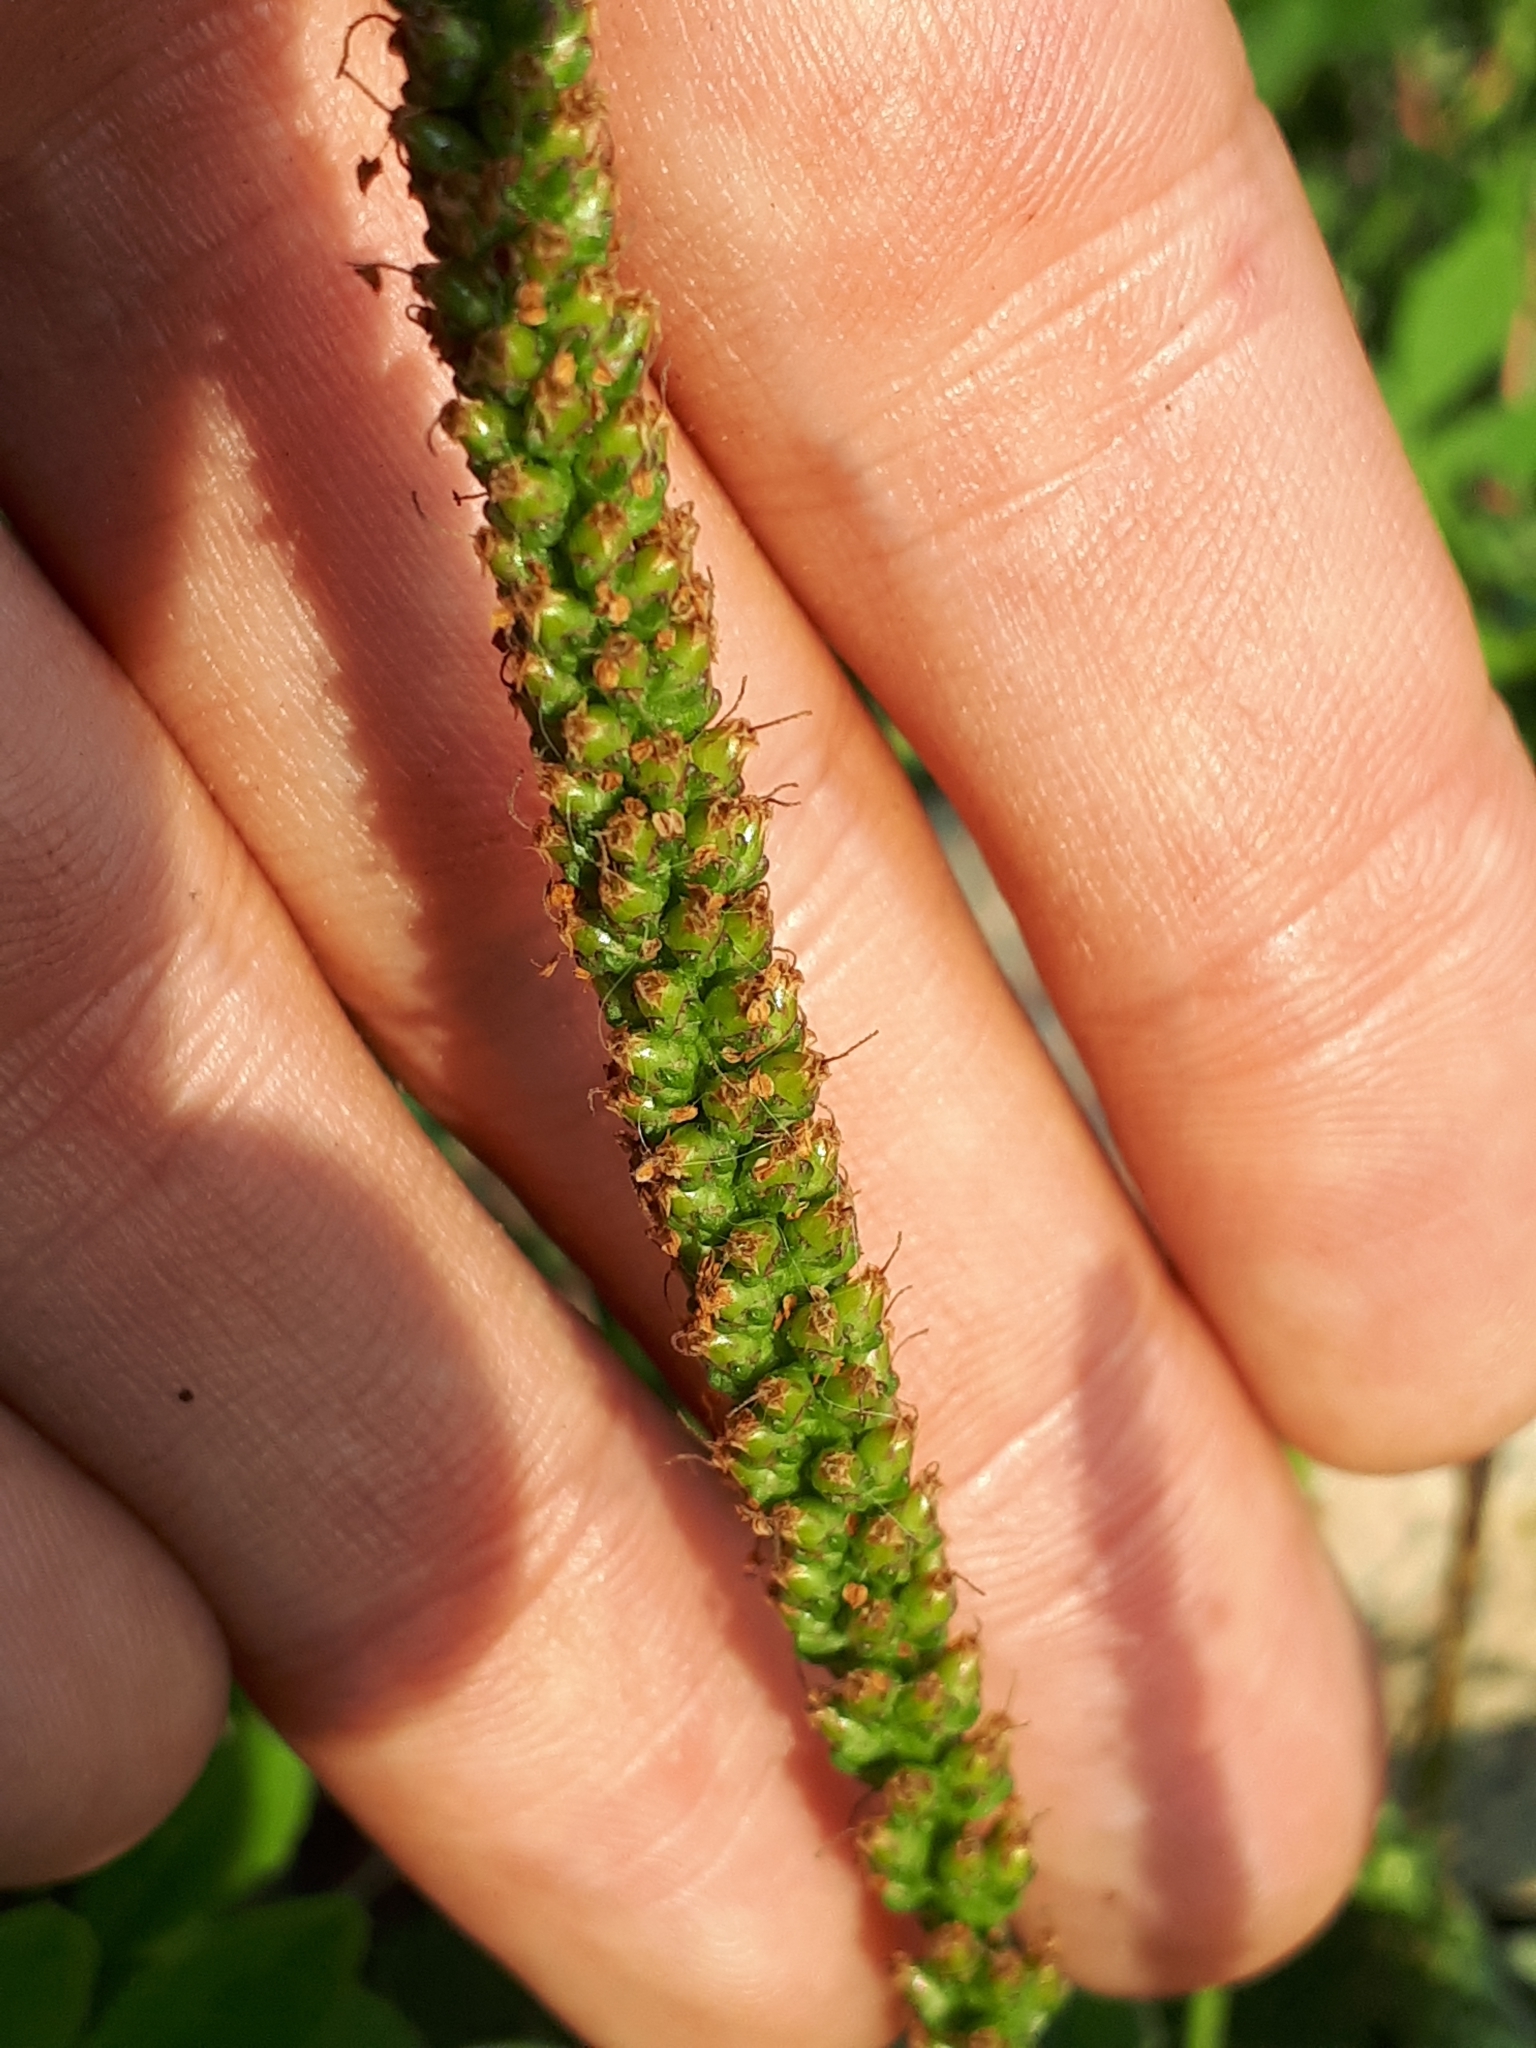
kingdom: Plantae
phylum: Tracheophyta
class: Magnoliopsida
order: Lamiales
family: Plantaginaceae
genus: Plantago
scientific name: Plantago major
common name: Common plantain
